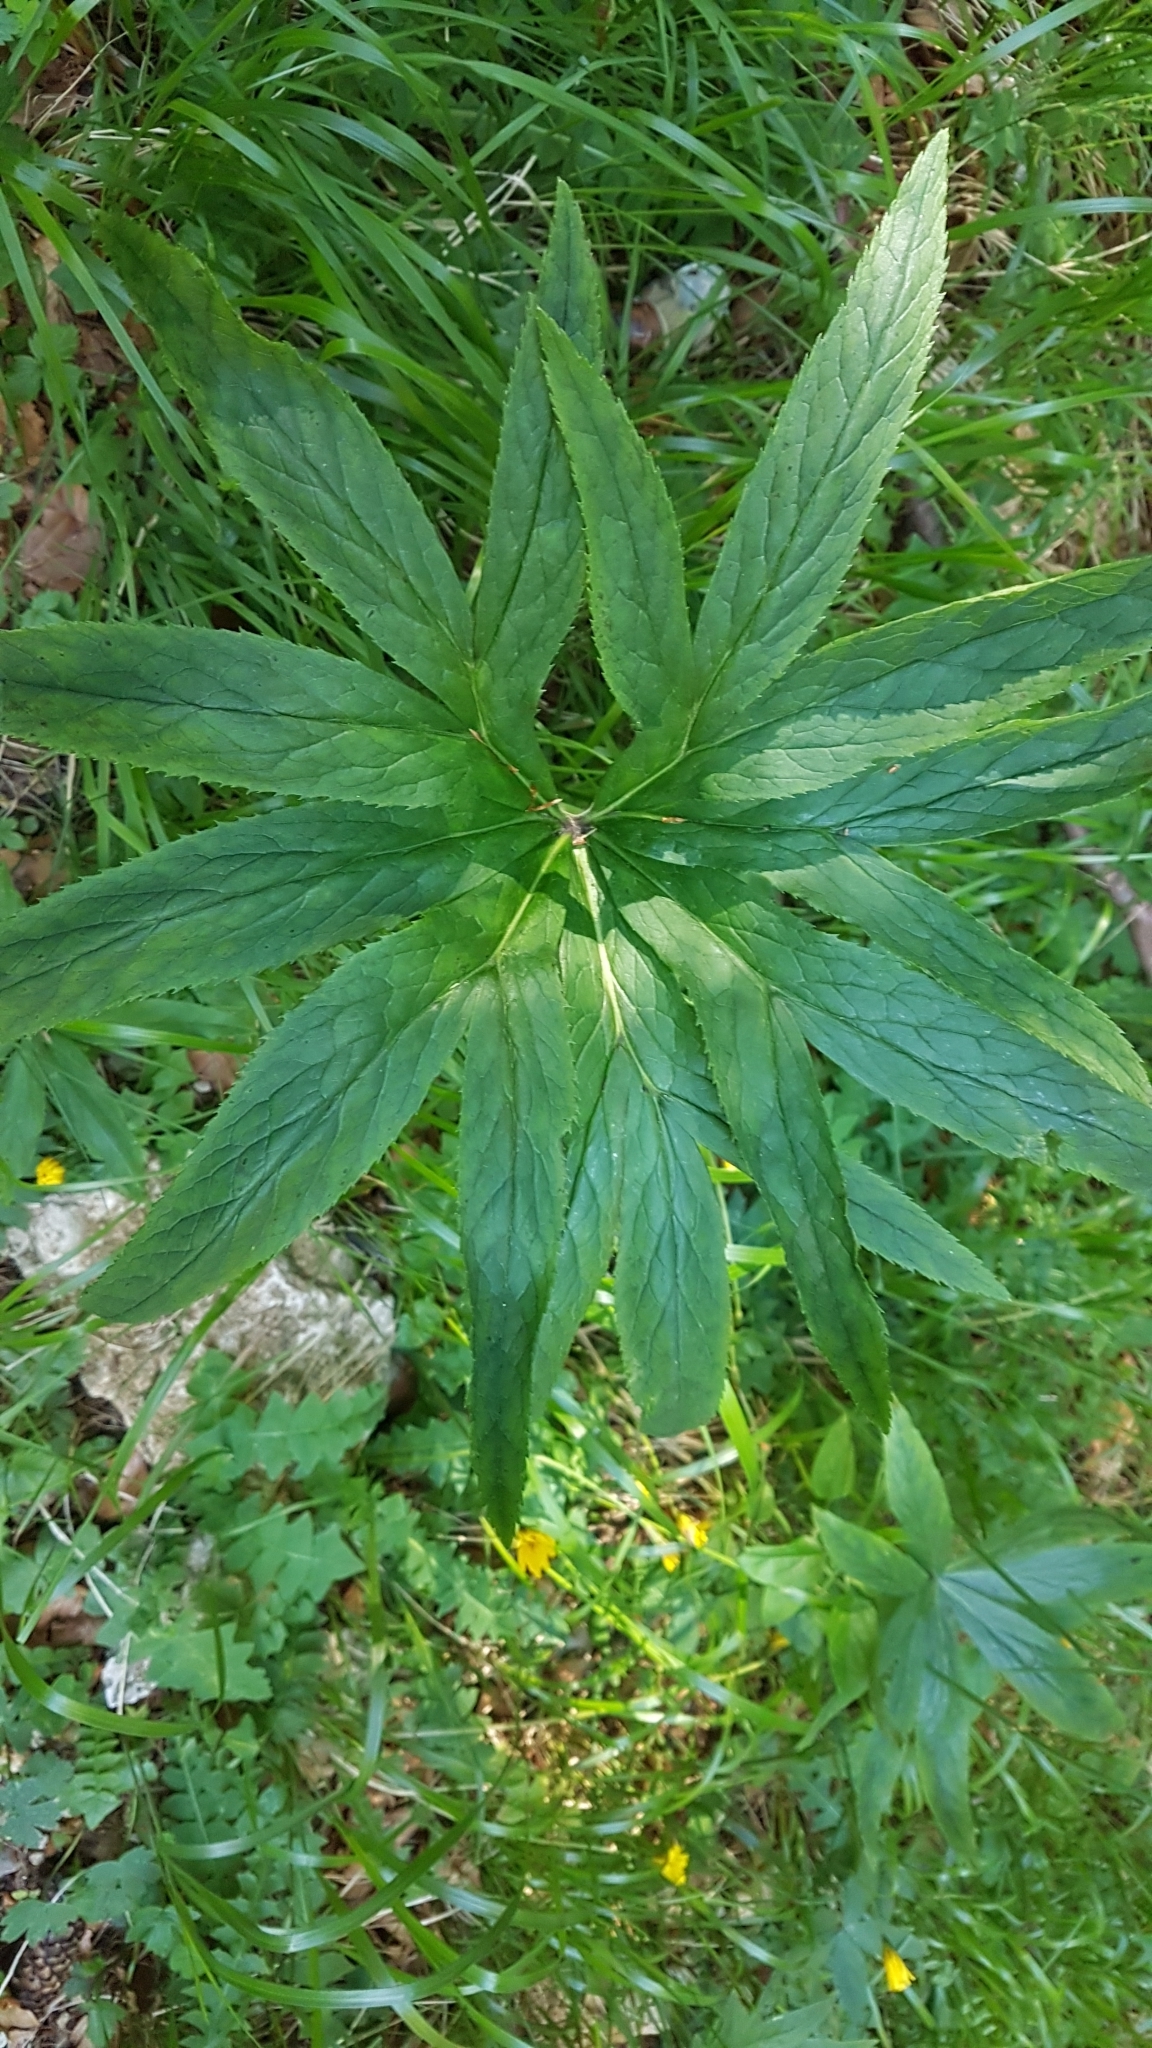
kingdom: Plantae
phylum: Tracheophyta
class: Magnoliopsida
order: Ranunculales
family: Ranunculaceae
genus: Helleborus
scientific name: Helleborus viridis
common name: Green hellebore
